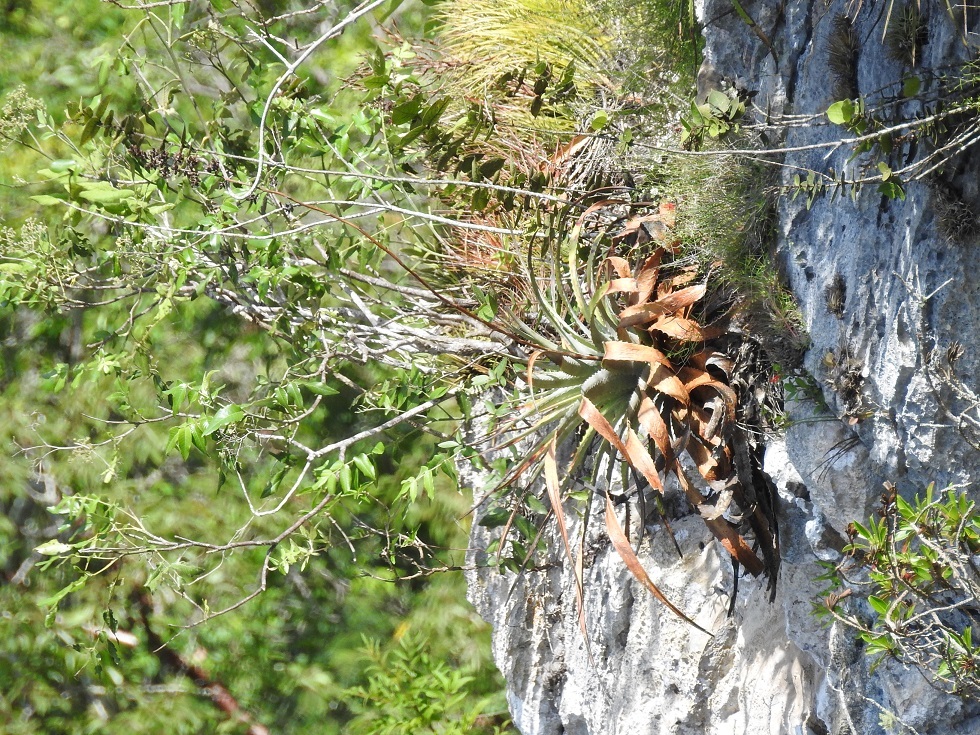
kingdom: Plantae
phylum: Tracheophyta
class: Liliopsida
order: Poales
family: Bromeliaceae
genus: Hechtia
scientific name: Hechtia glomerata
